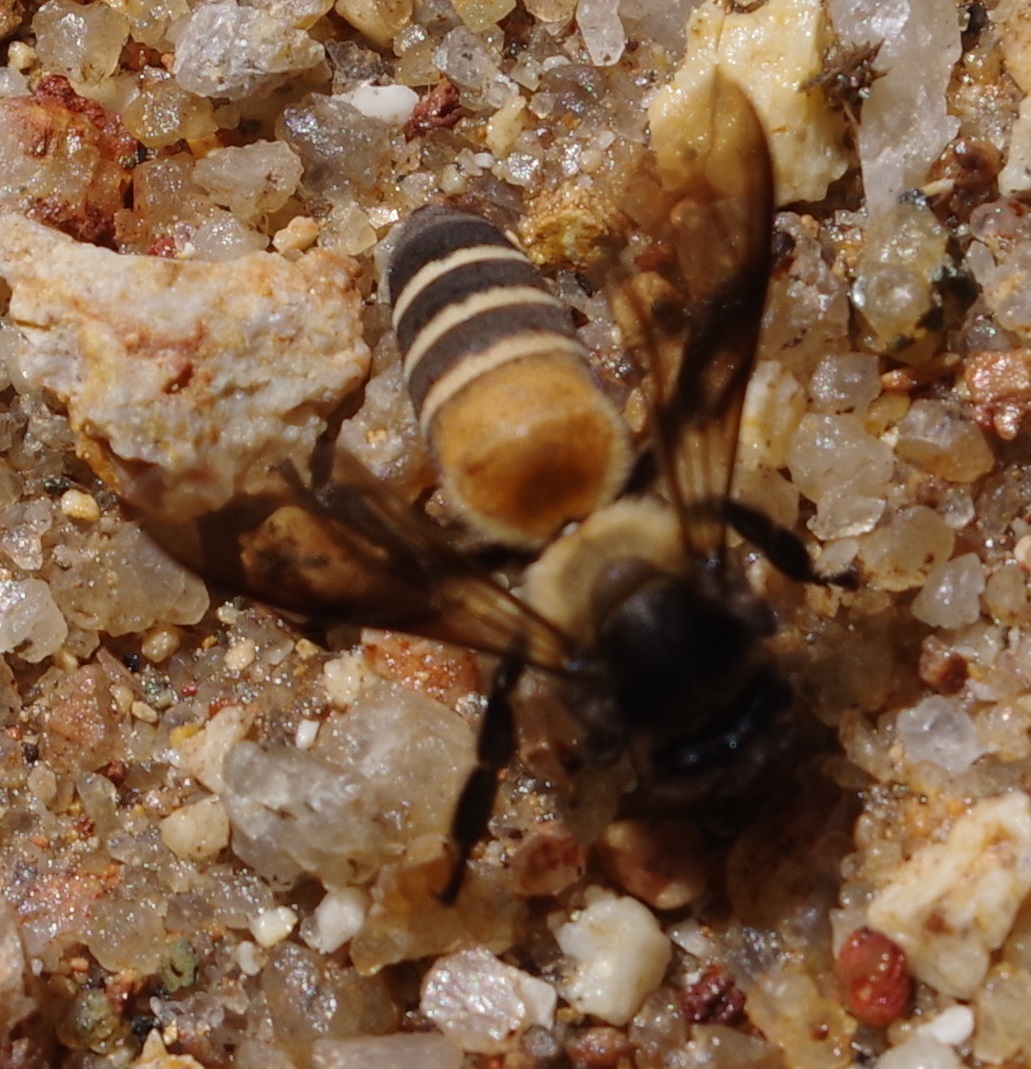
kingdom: Animalia
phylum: Arthropoda
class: Insecta
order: Hymenoptera
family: Apidae
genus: Apis
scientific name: Apis dorsata
